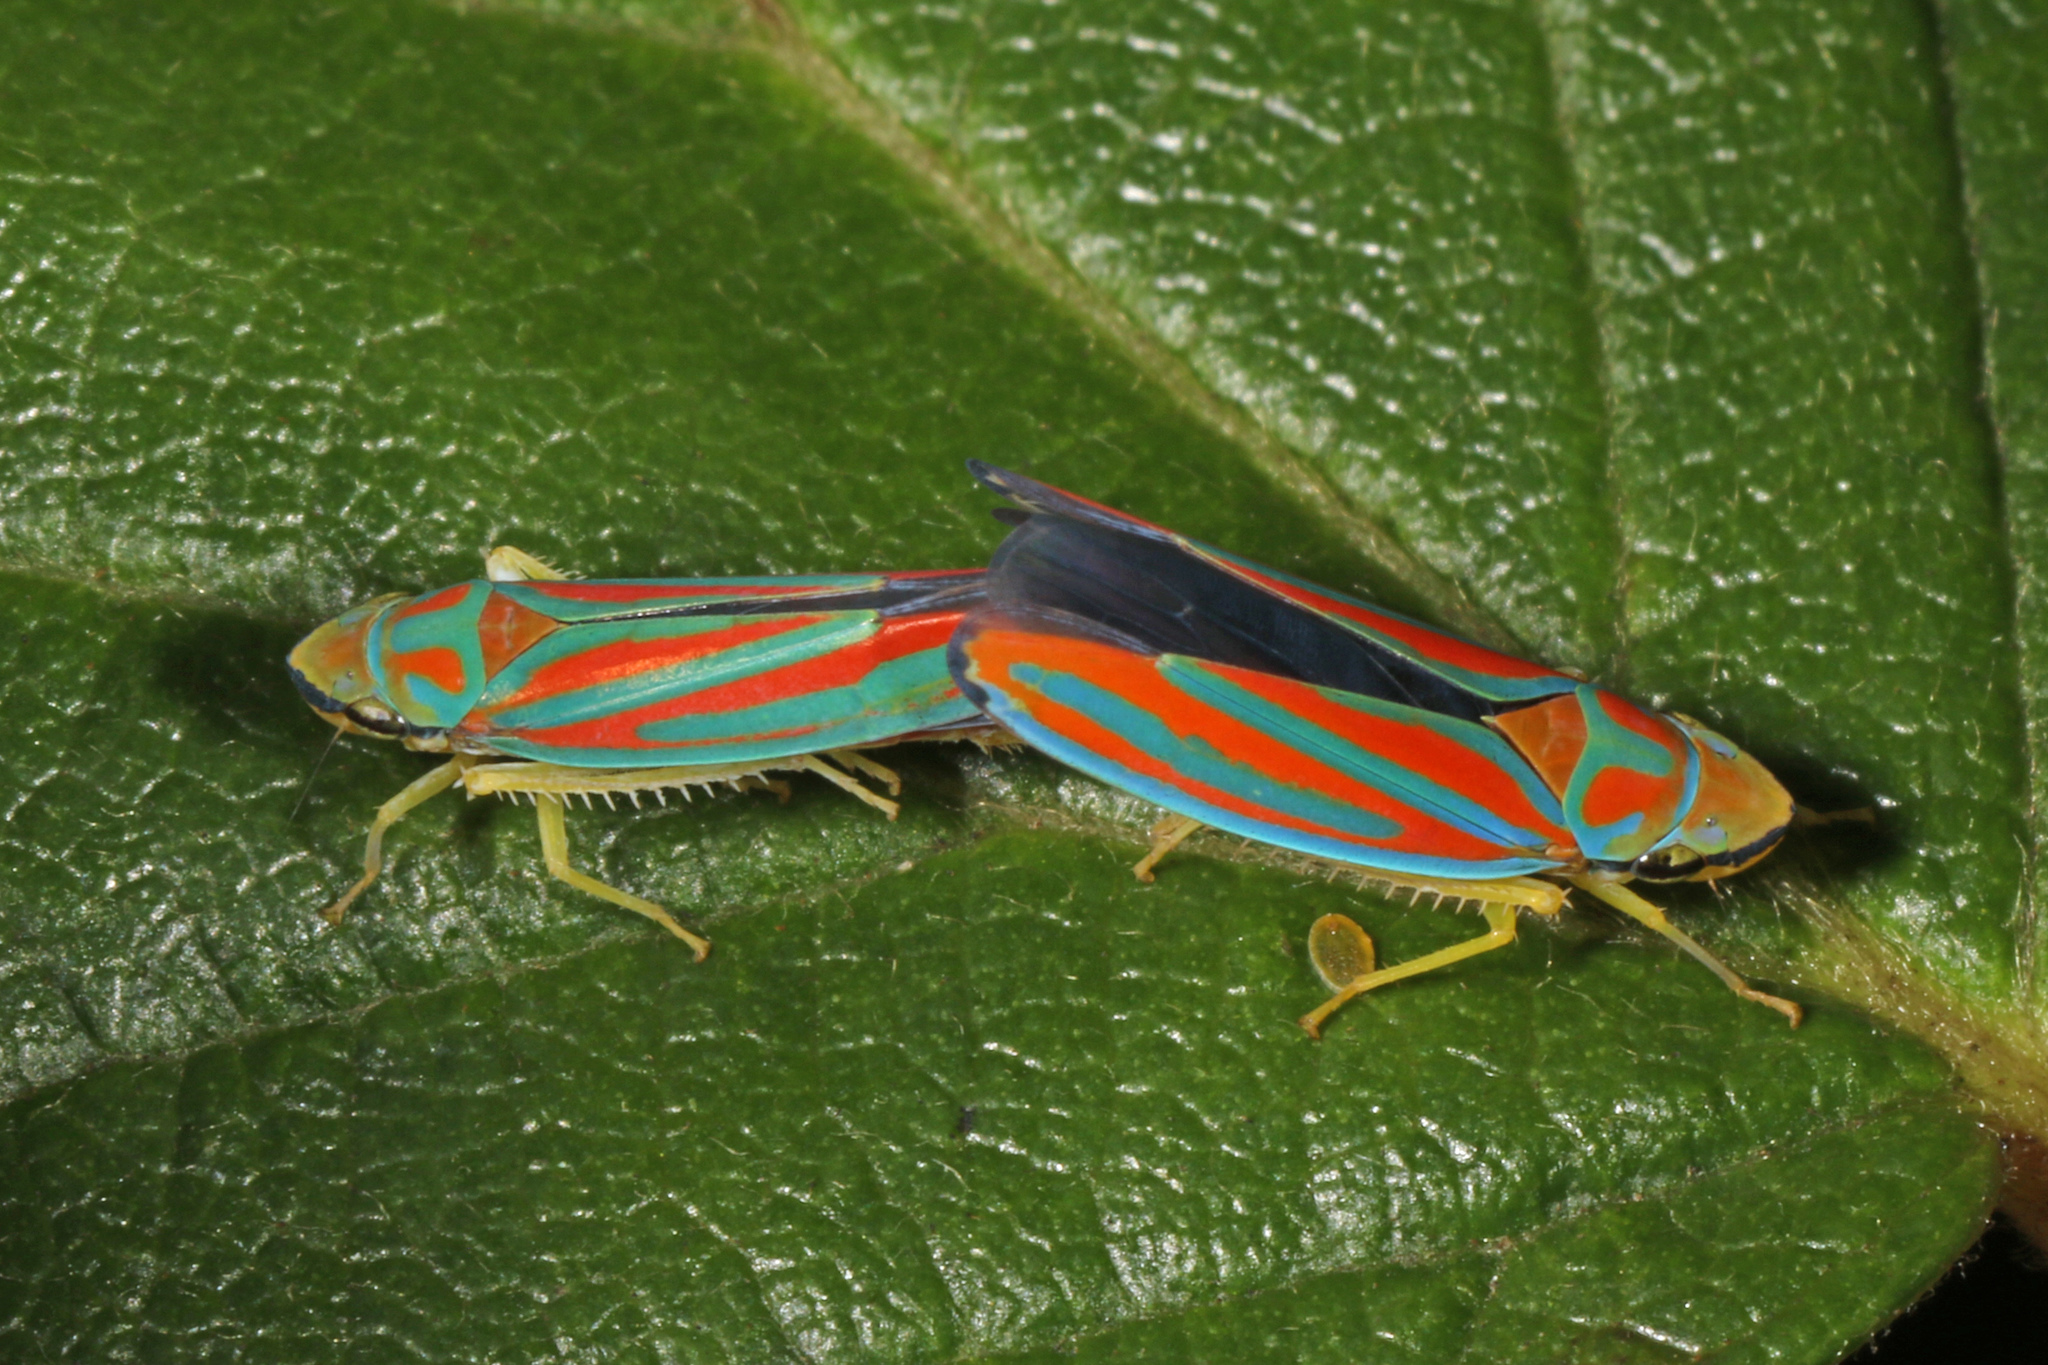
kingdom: Animalia
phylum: Arthropoda
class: Insecta
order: Hemiptera
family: Cicadellidae
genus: Graphocephala
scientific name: Graphocephala coccinea
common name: Candy-striped leafhopper
